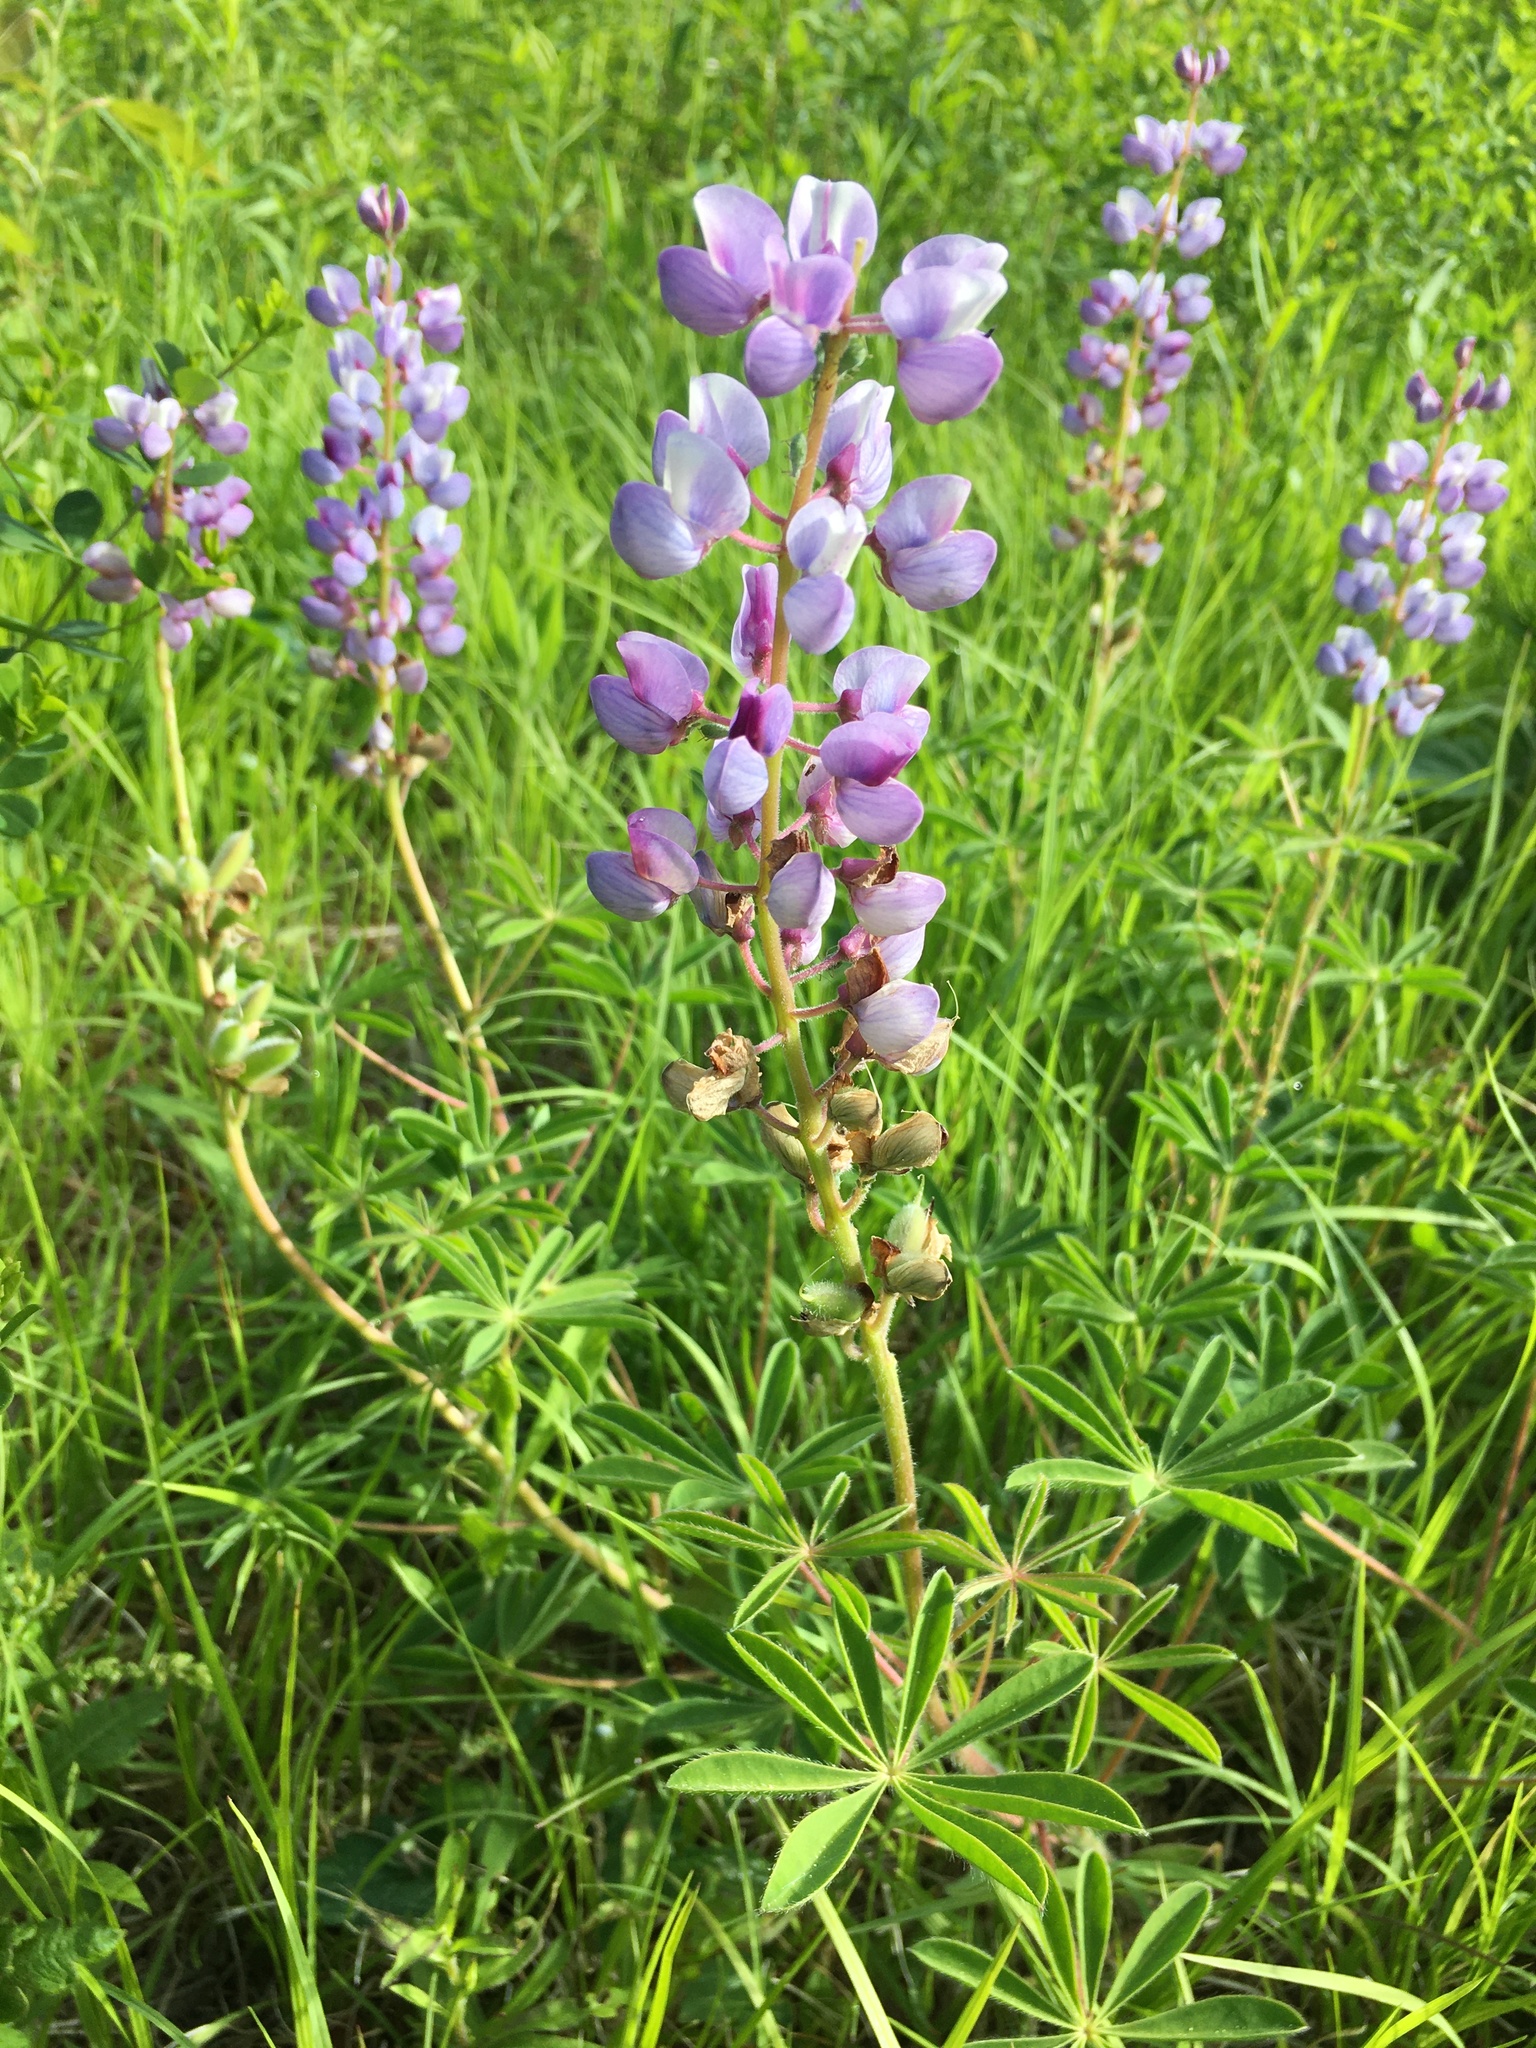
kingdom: Plantae
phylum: Tracheophyta
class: Magnoliopsida
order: Fabales
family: Fabaceae
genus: Lupinus
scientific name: Lupinus perennis
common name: Sundial lupine
